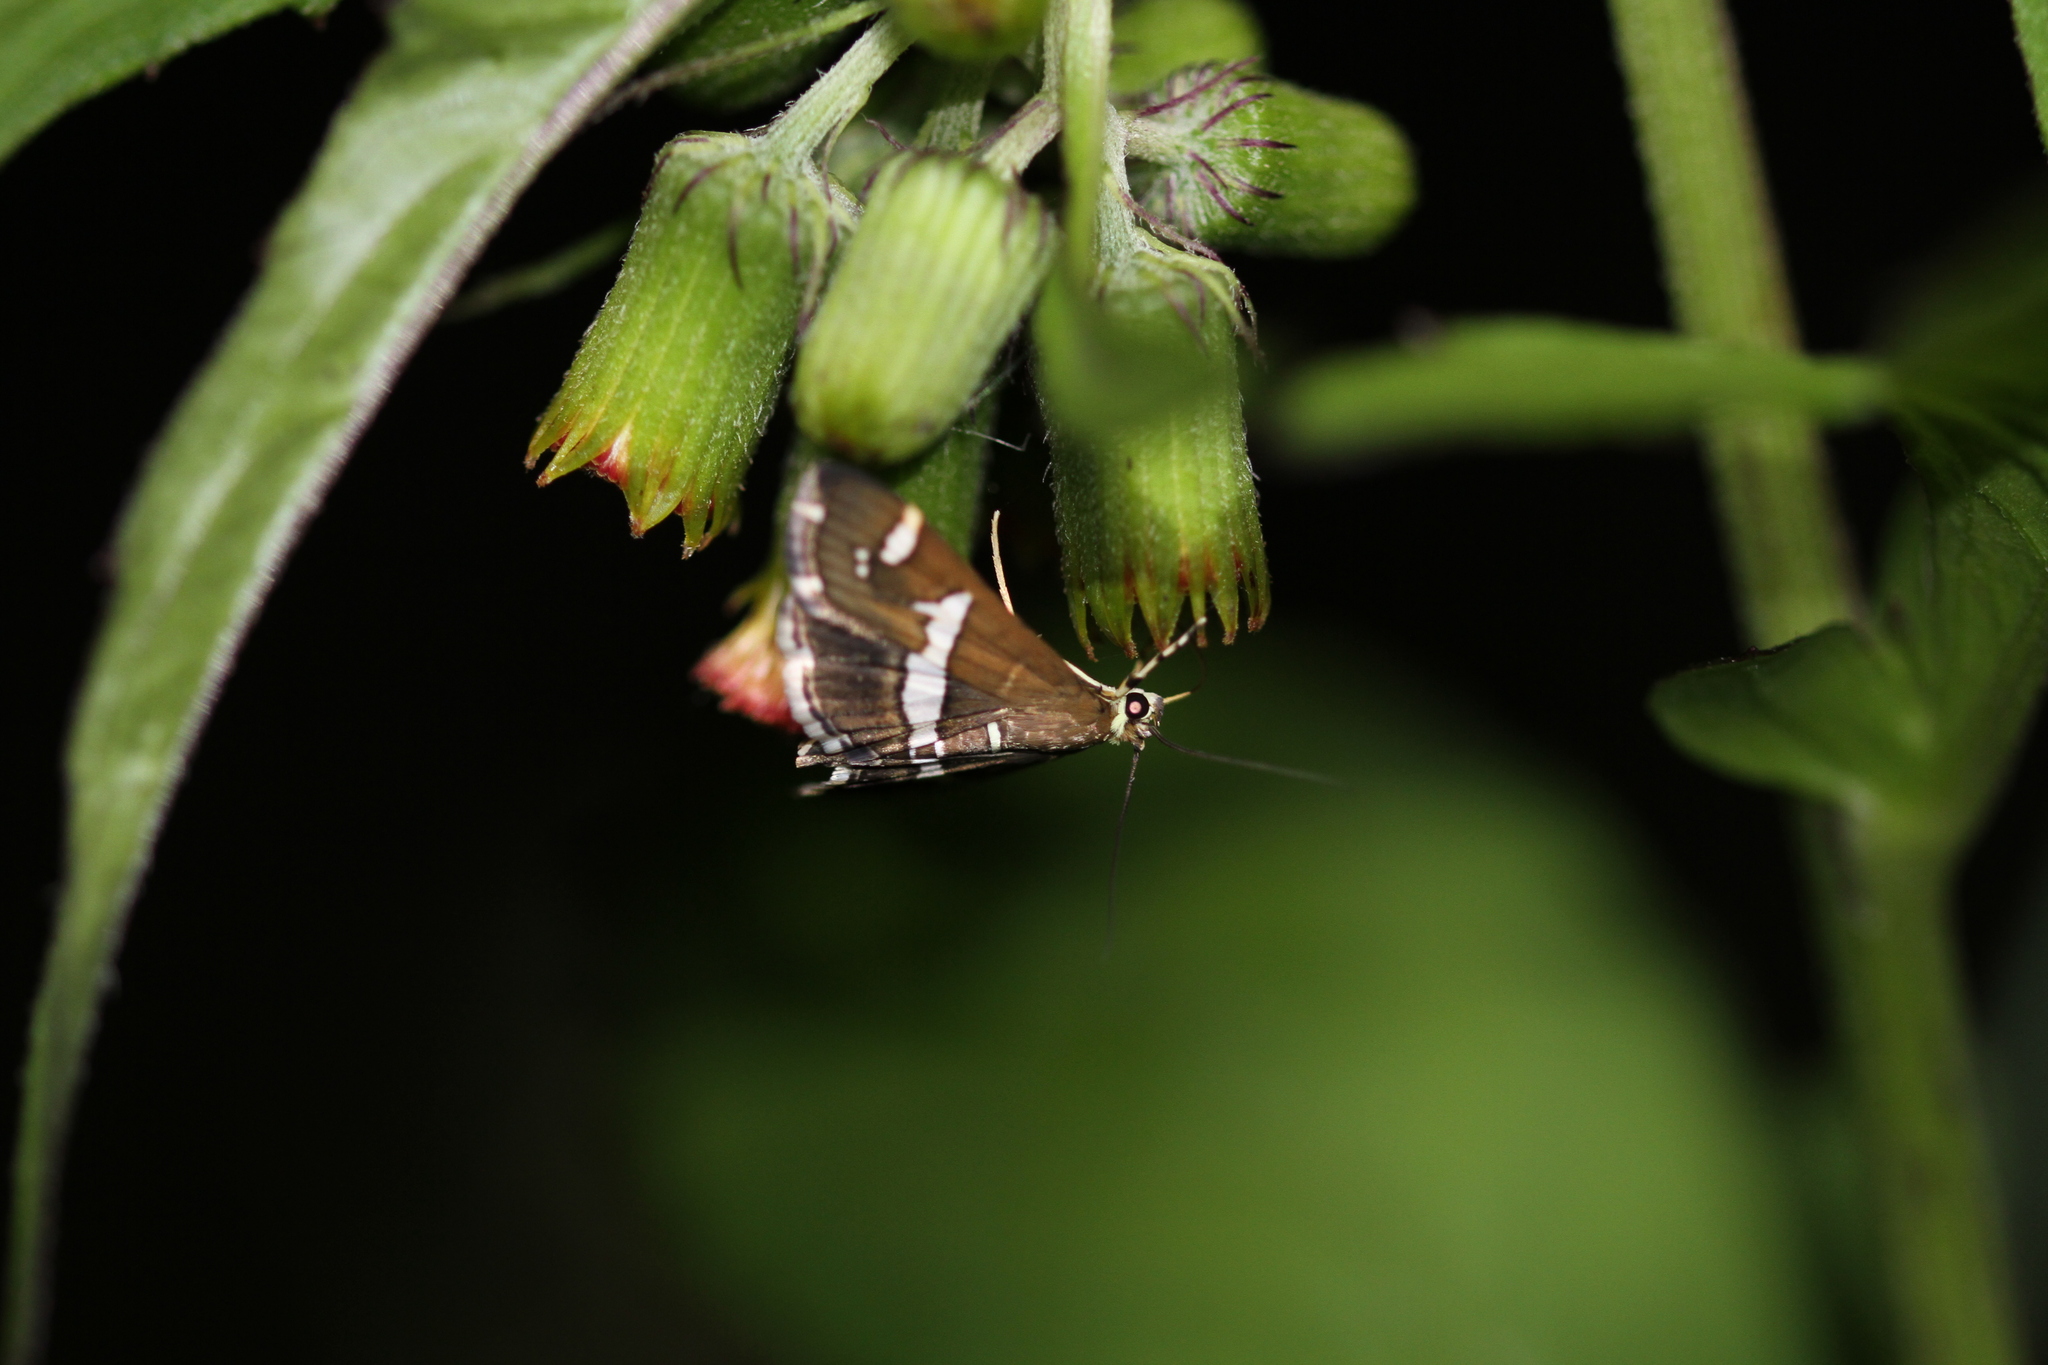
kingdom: Animalia
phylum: Arthropoda
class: Insecta
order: Lepidoptera
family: Crambidae
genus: Spoladea
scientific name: Spoladea recurvalis
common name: Beet webworm moth
